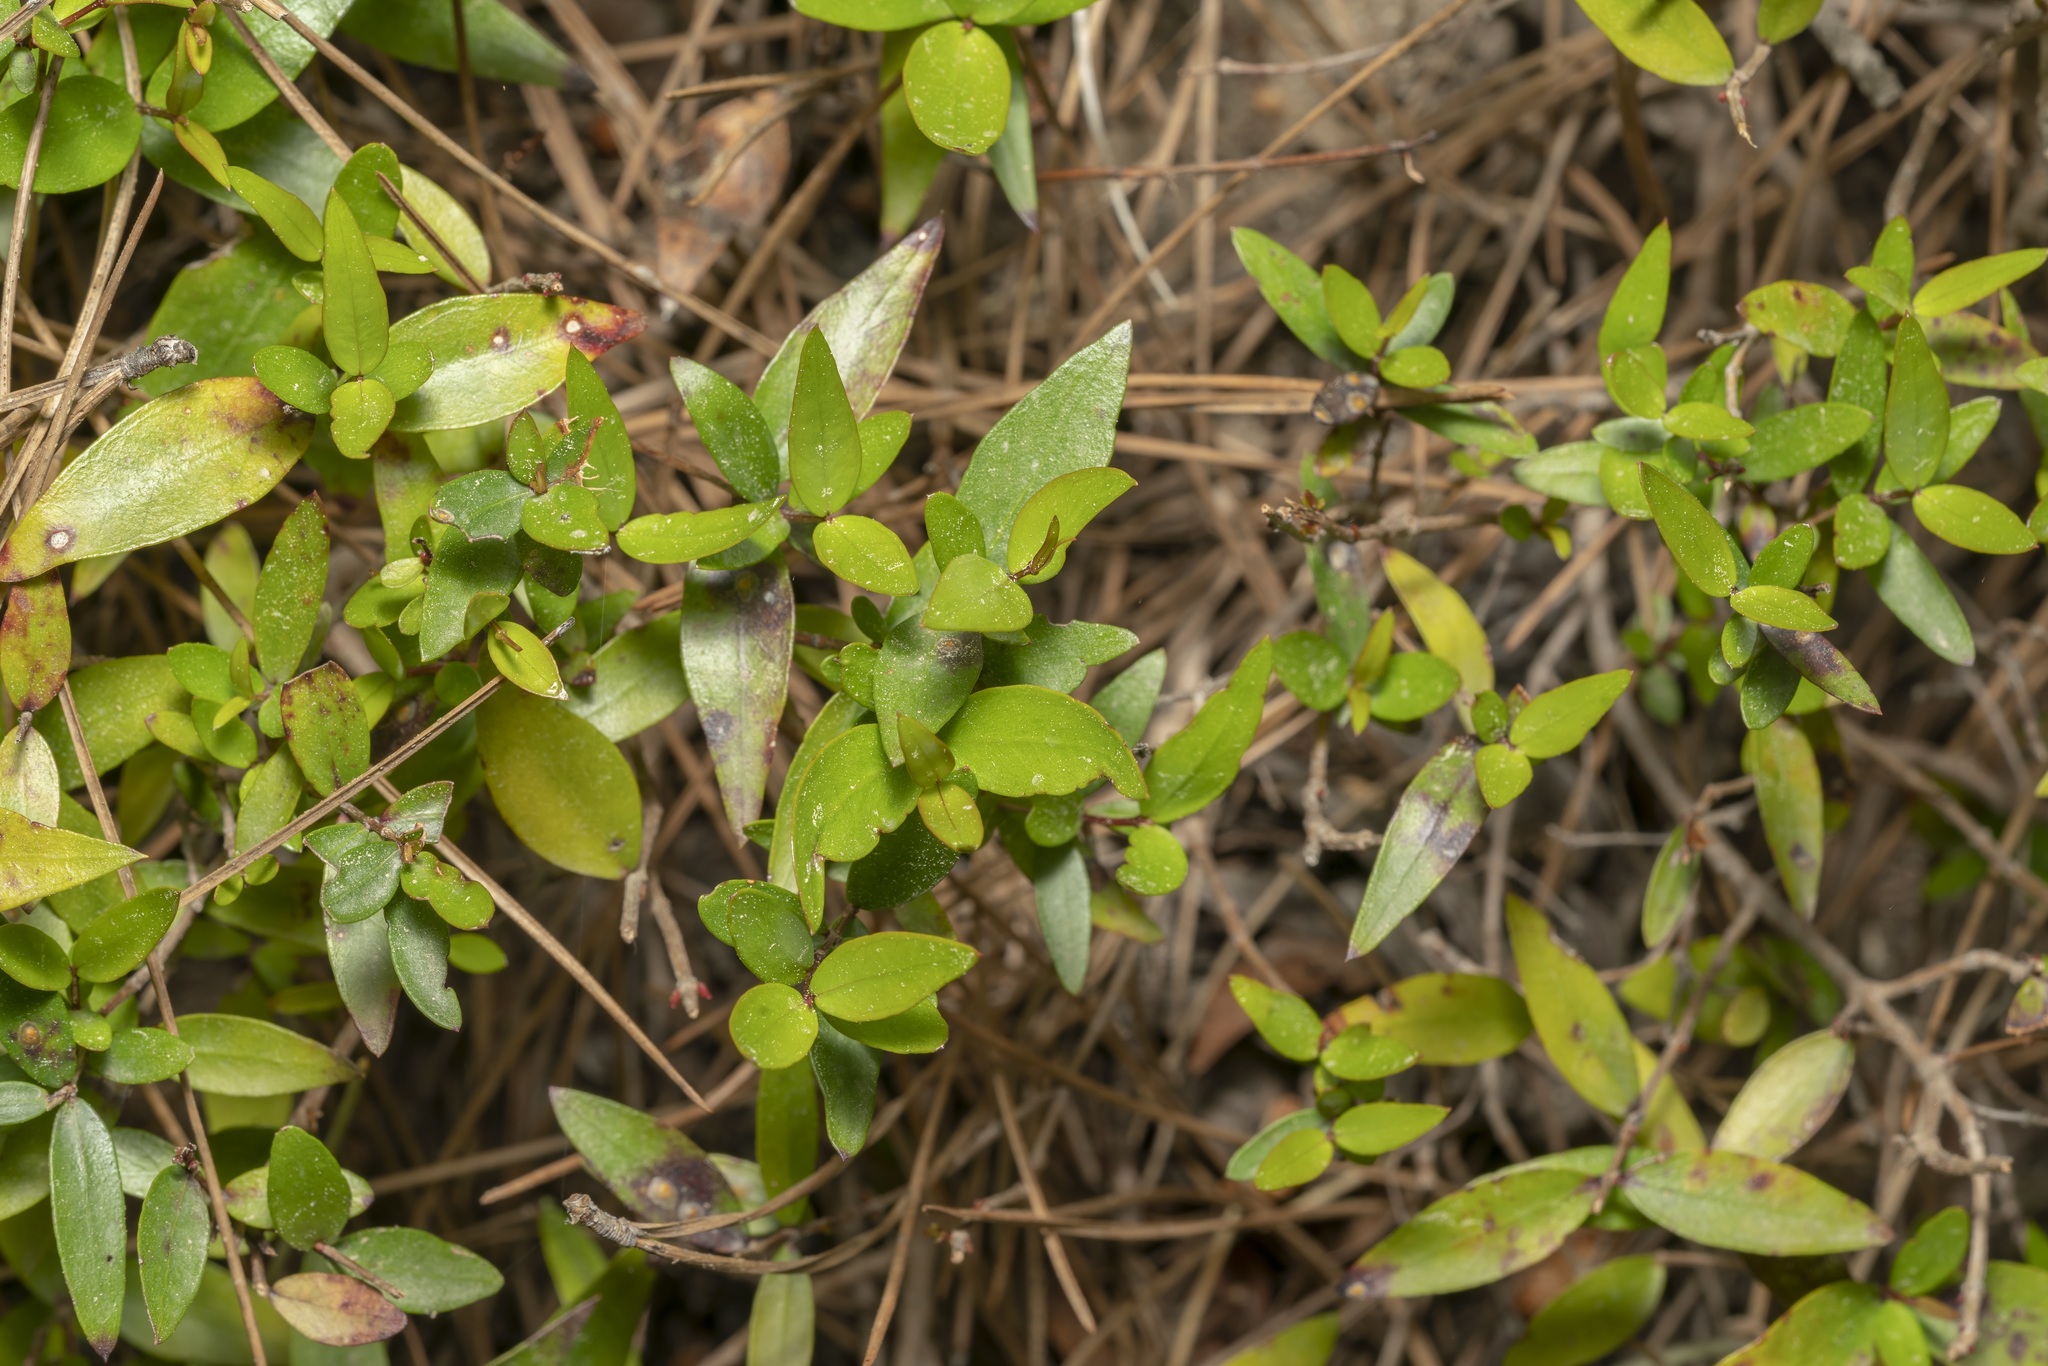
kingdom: Plantae
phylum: Tracheophyta
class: Magnoliopsida
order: Myrtales
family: Myrtaceae
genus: Myrtus
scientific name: Myrtus communis
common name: Myrtle
